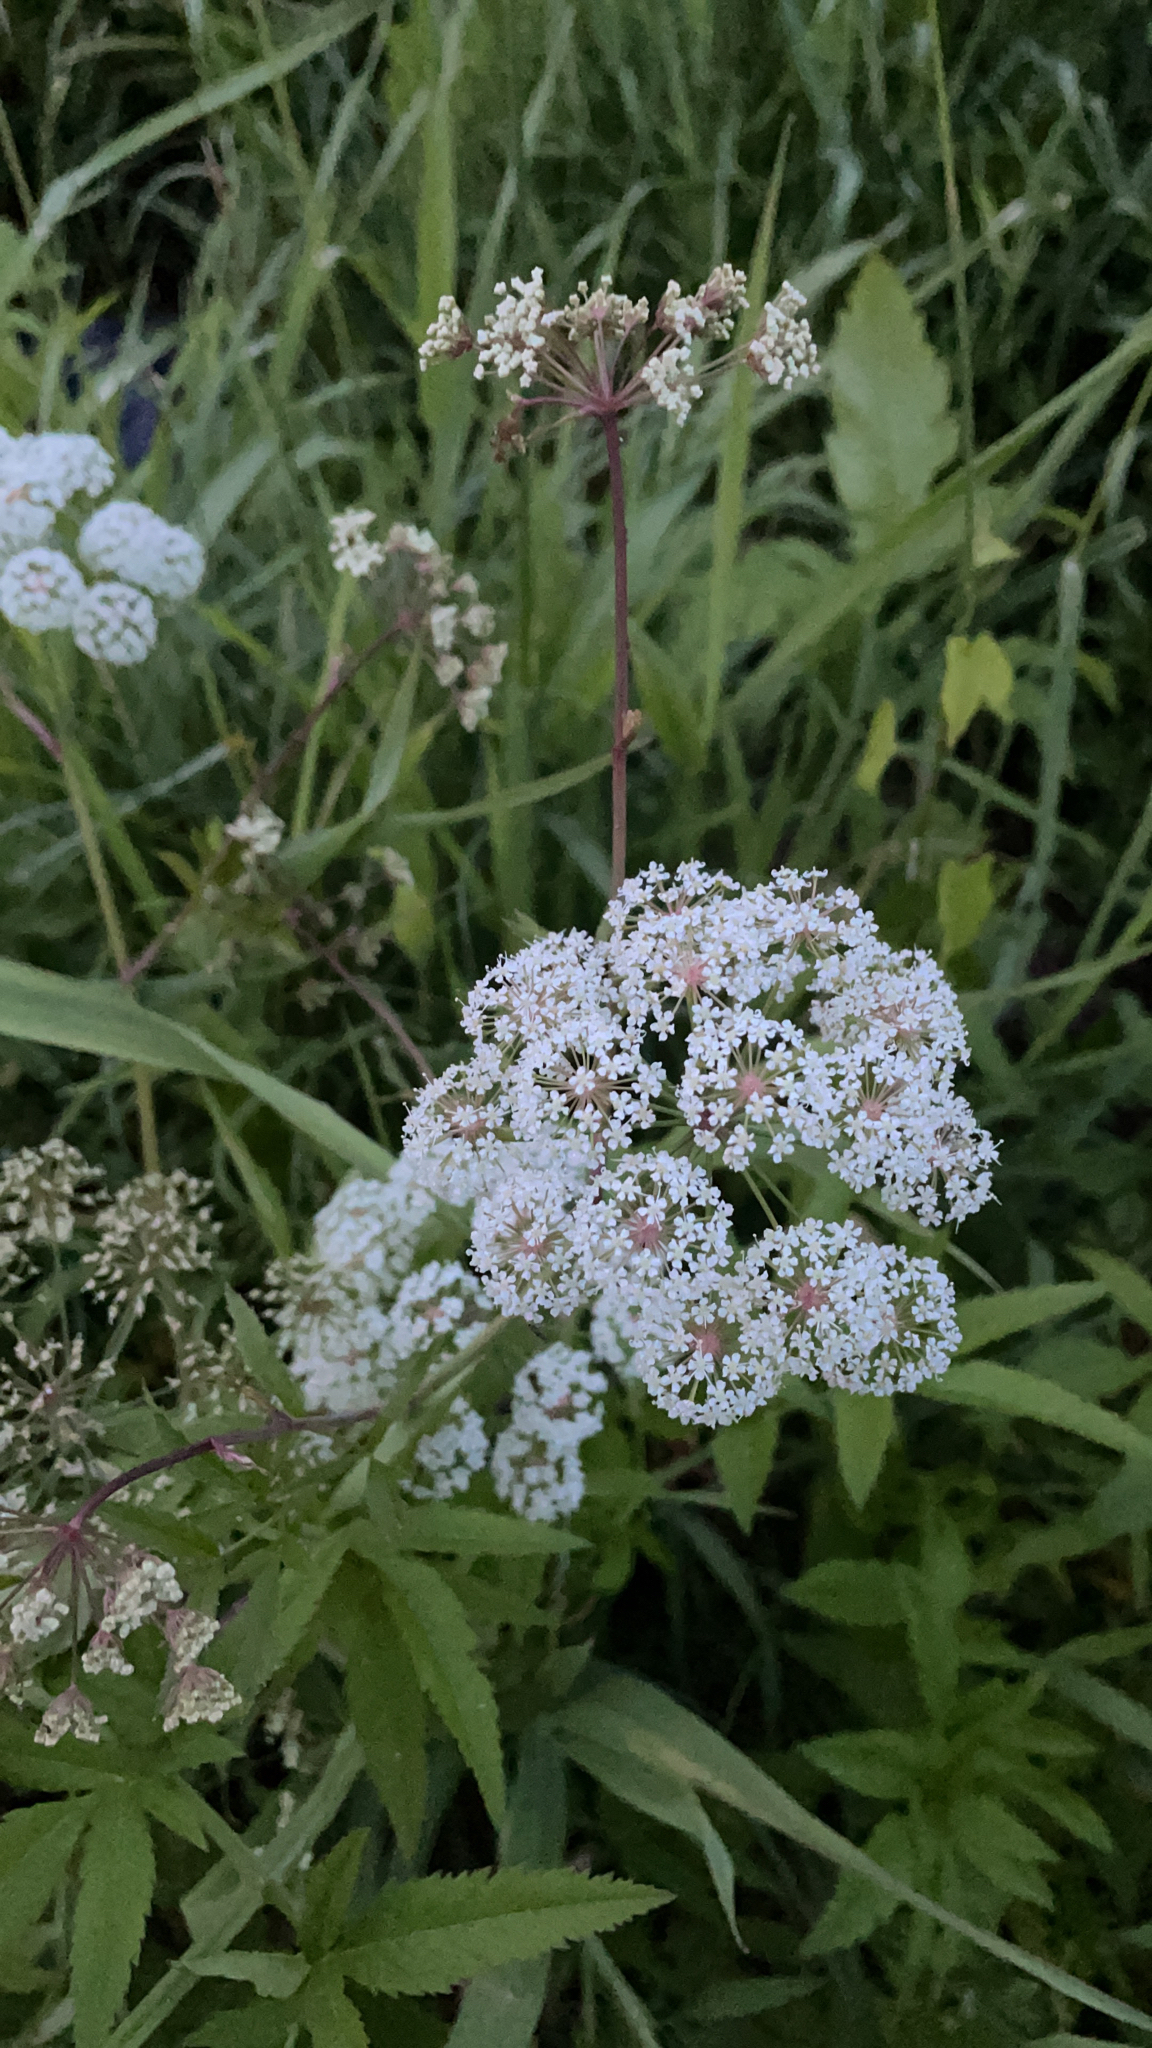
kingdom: Plantae
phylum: Tracheophyta
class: Magnoliopsida
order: Apiales
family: Apiaceae
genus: Cicuta
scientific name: Cicuta virosa
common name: Cowbane
